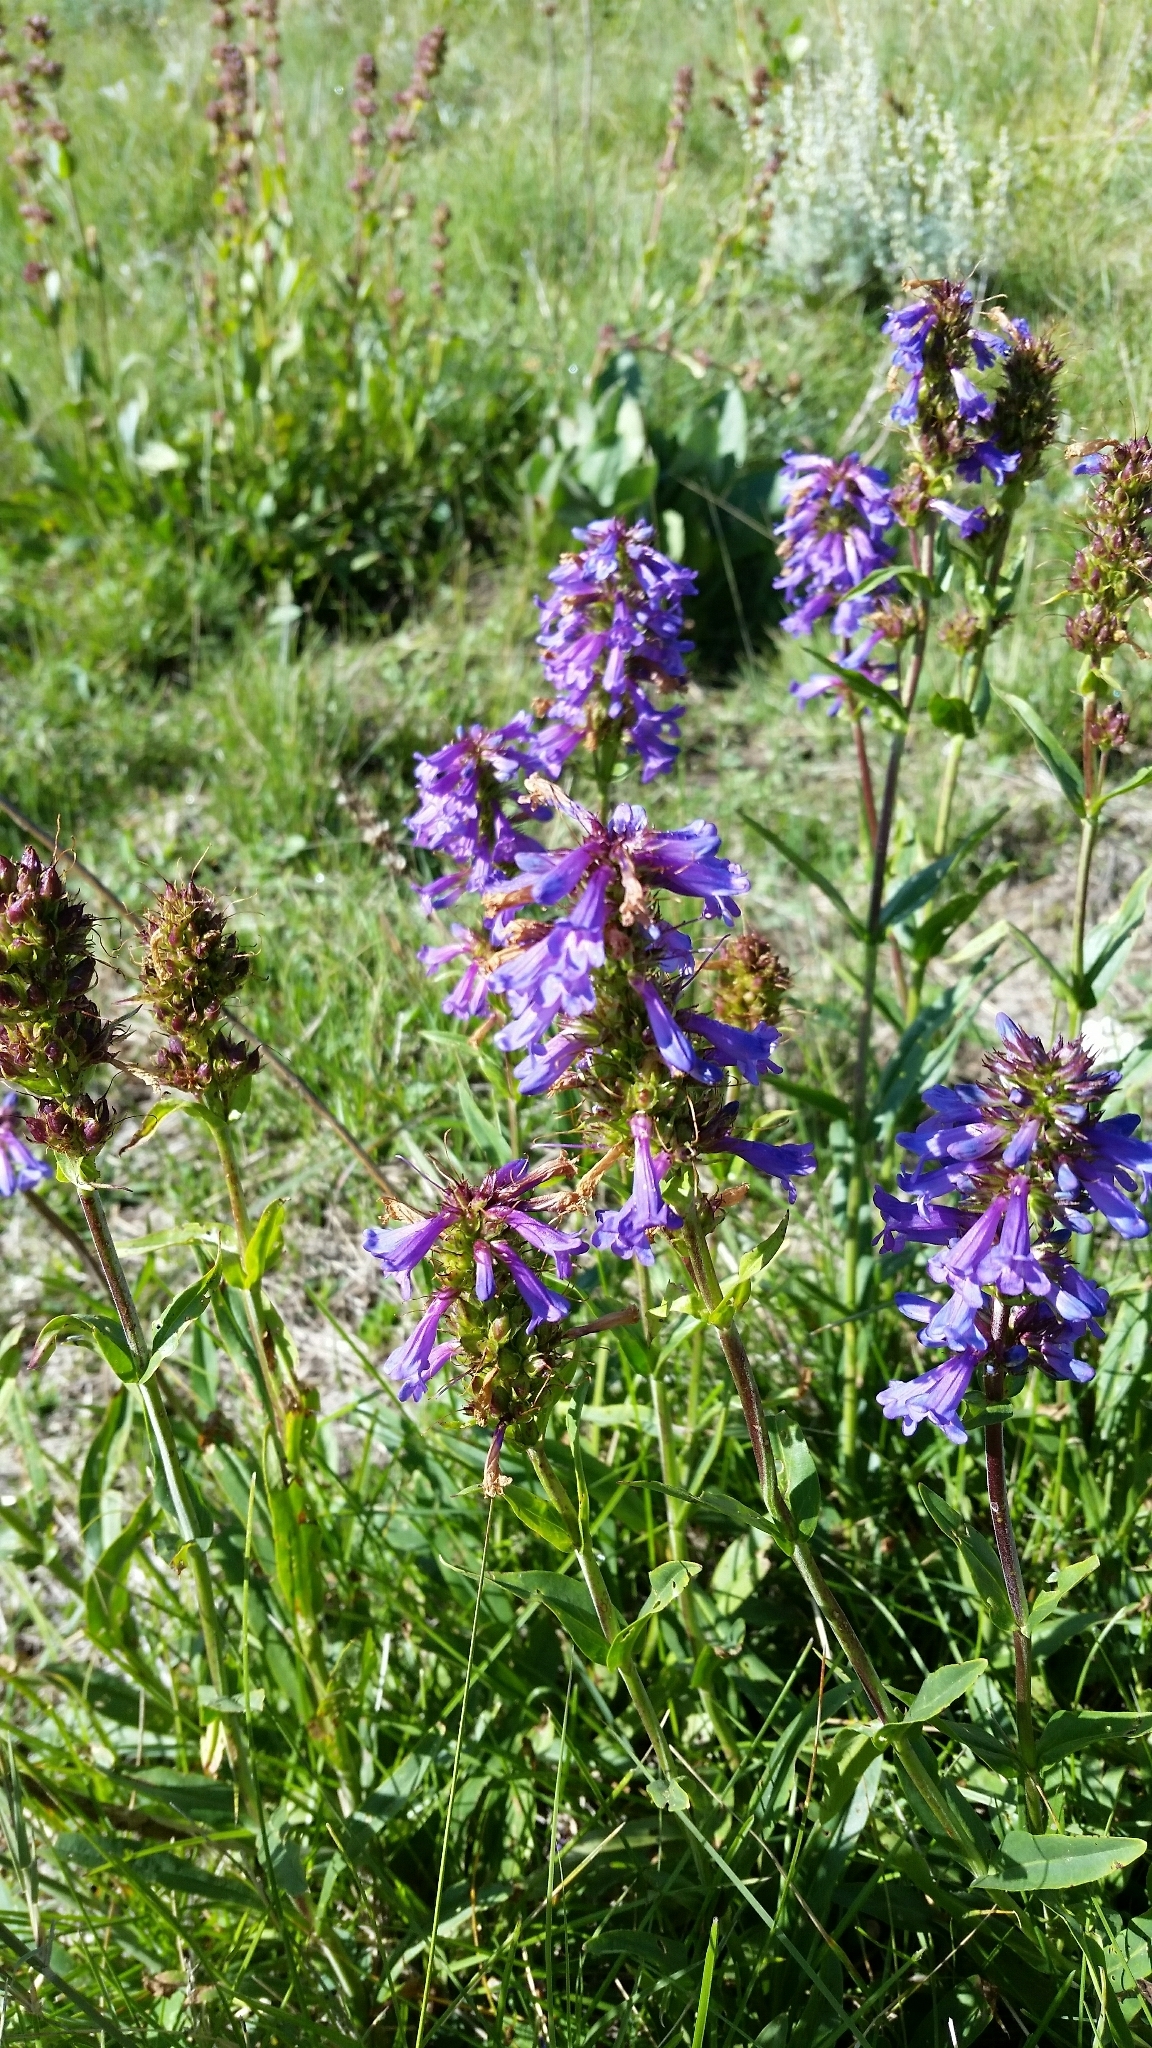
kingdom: Plantae
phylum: Tracheophyta
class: Magnoliopsida
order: Lamiales
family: Plantaginaceae
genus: Penstemon
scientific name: Penstemon rydbergii
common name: Rydberg's beardtongue
